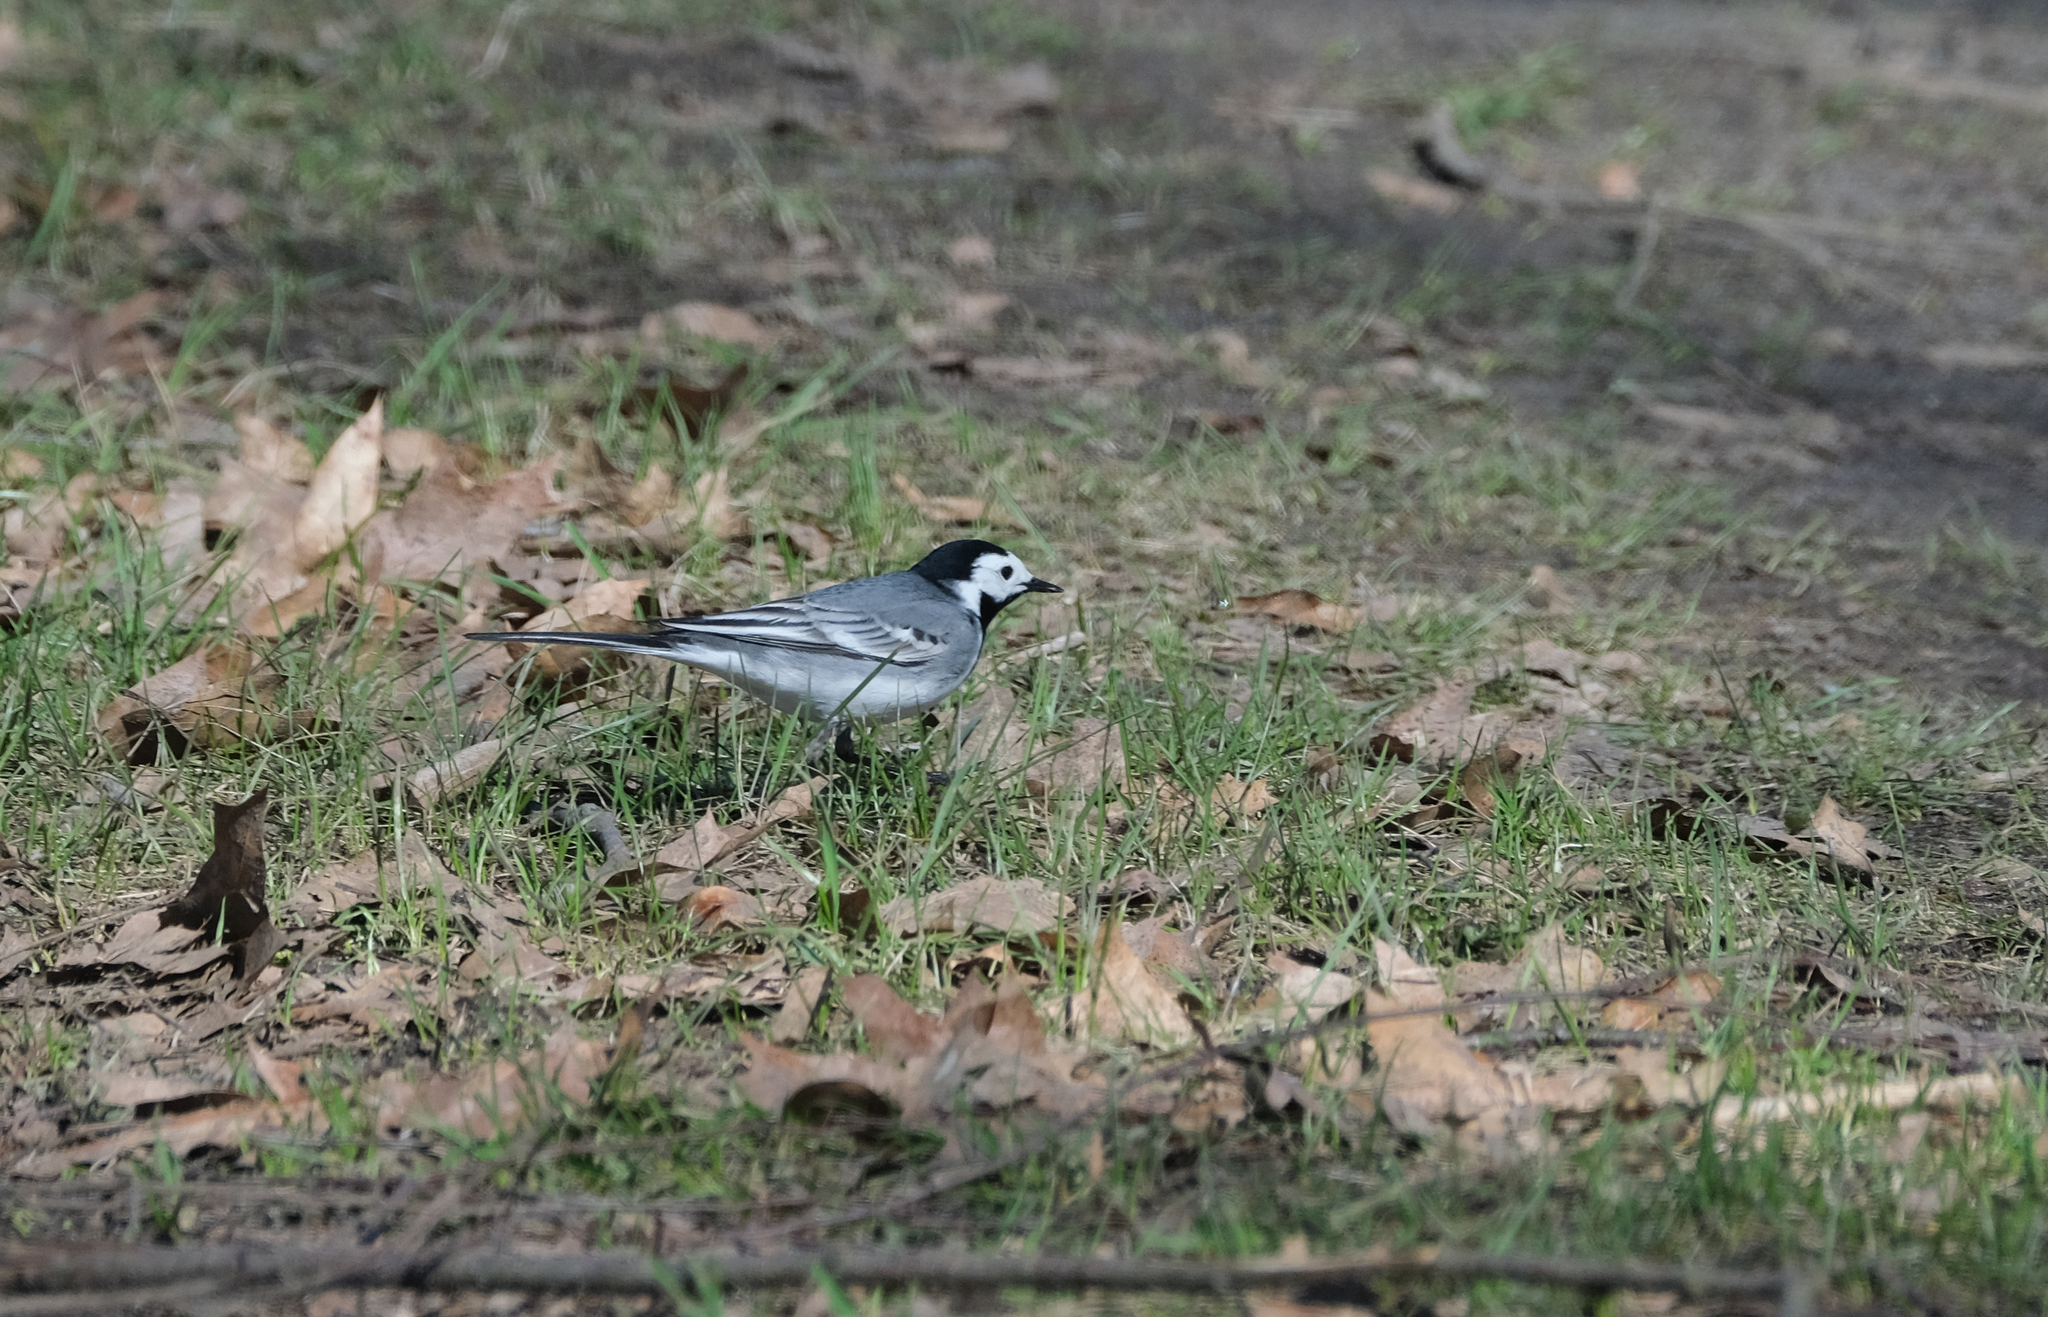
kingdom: Animalia
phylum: Chordata
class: Aves
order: Passeriformes
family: Motacillidae
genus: Motacilla
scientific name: Motacilla alba
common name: White wagtail
